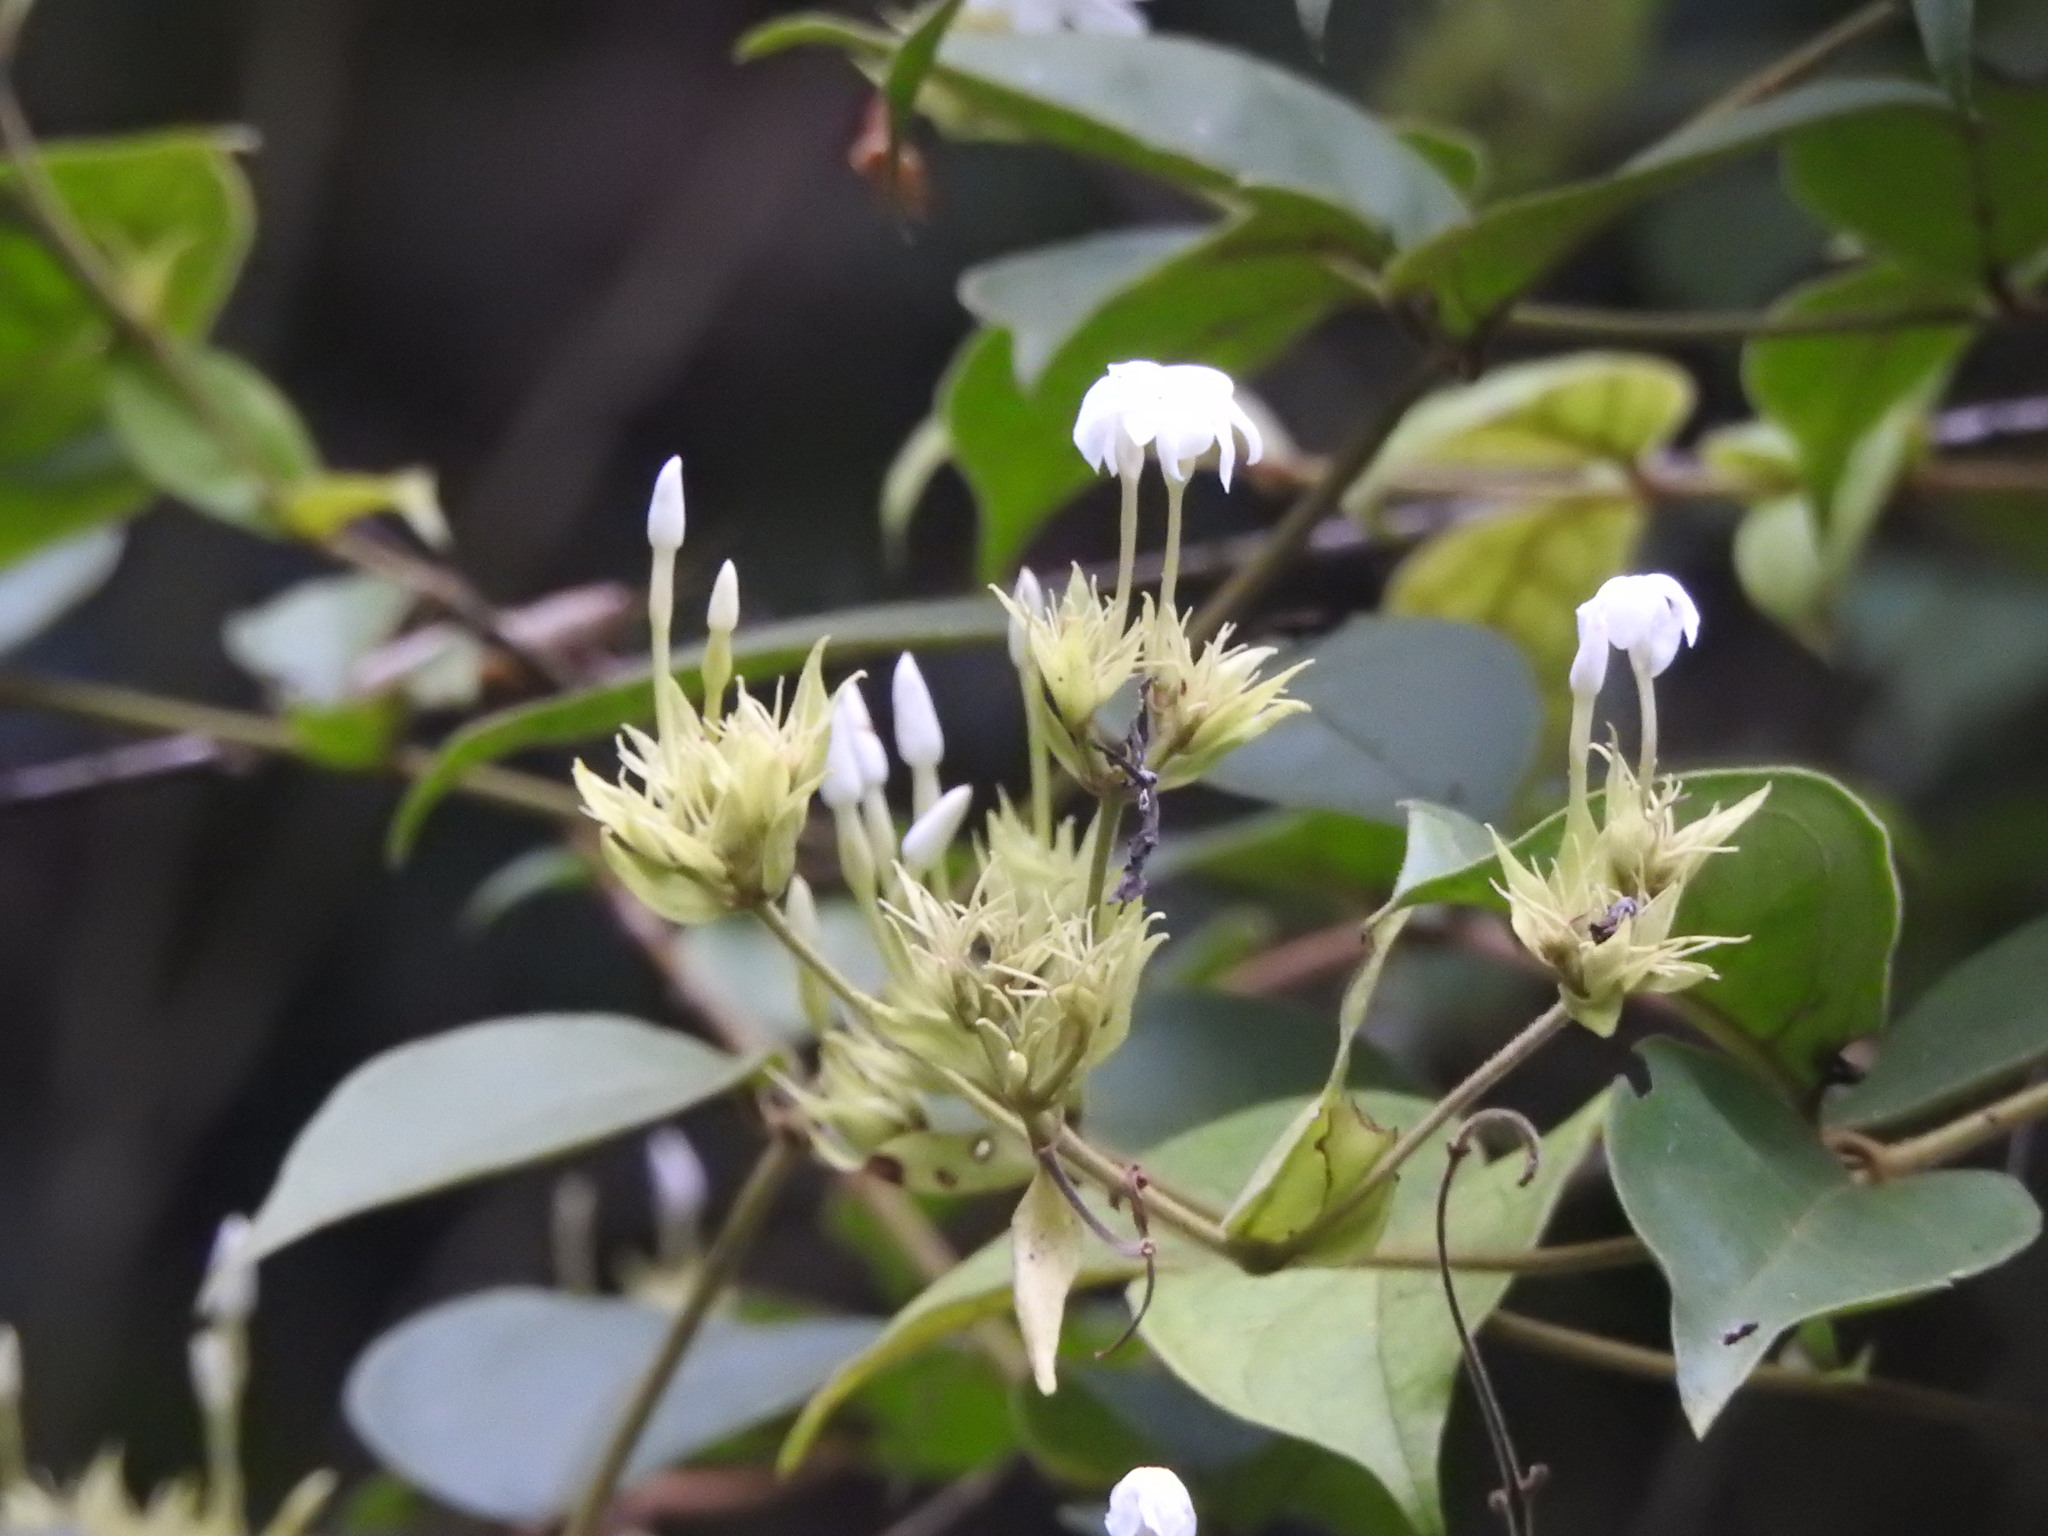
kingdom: Plantae
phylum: Tracheophyta
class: Magnoliopsida
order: Lamiales
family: Oleaceae
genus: Jasminum
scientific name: Jasminum coarctatum
